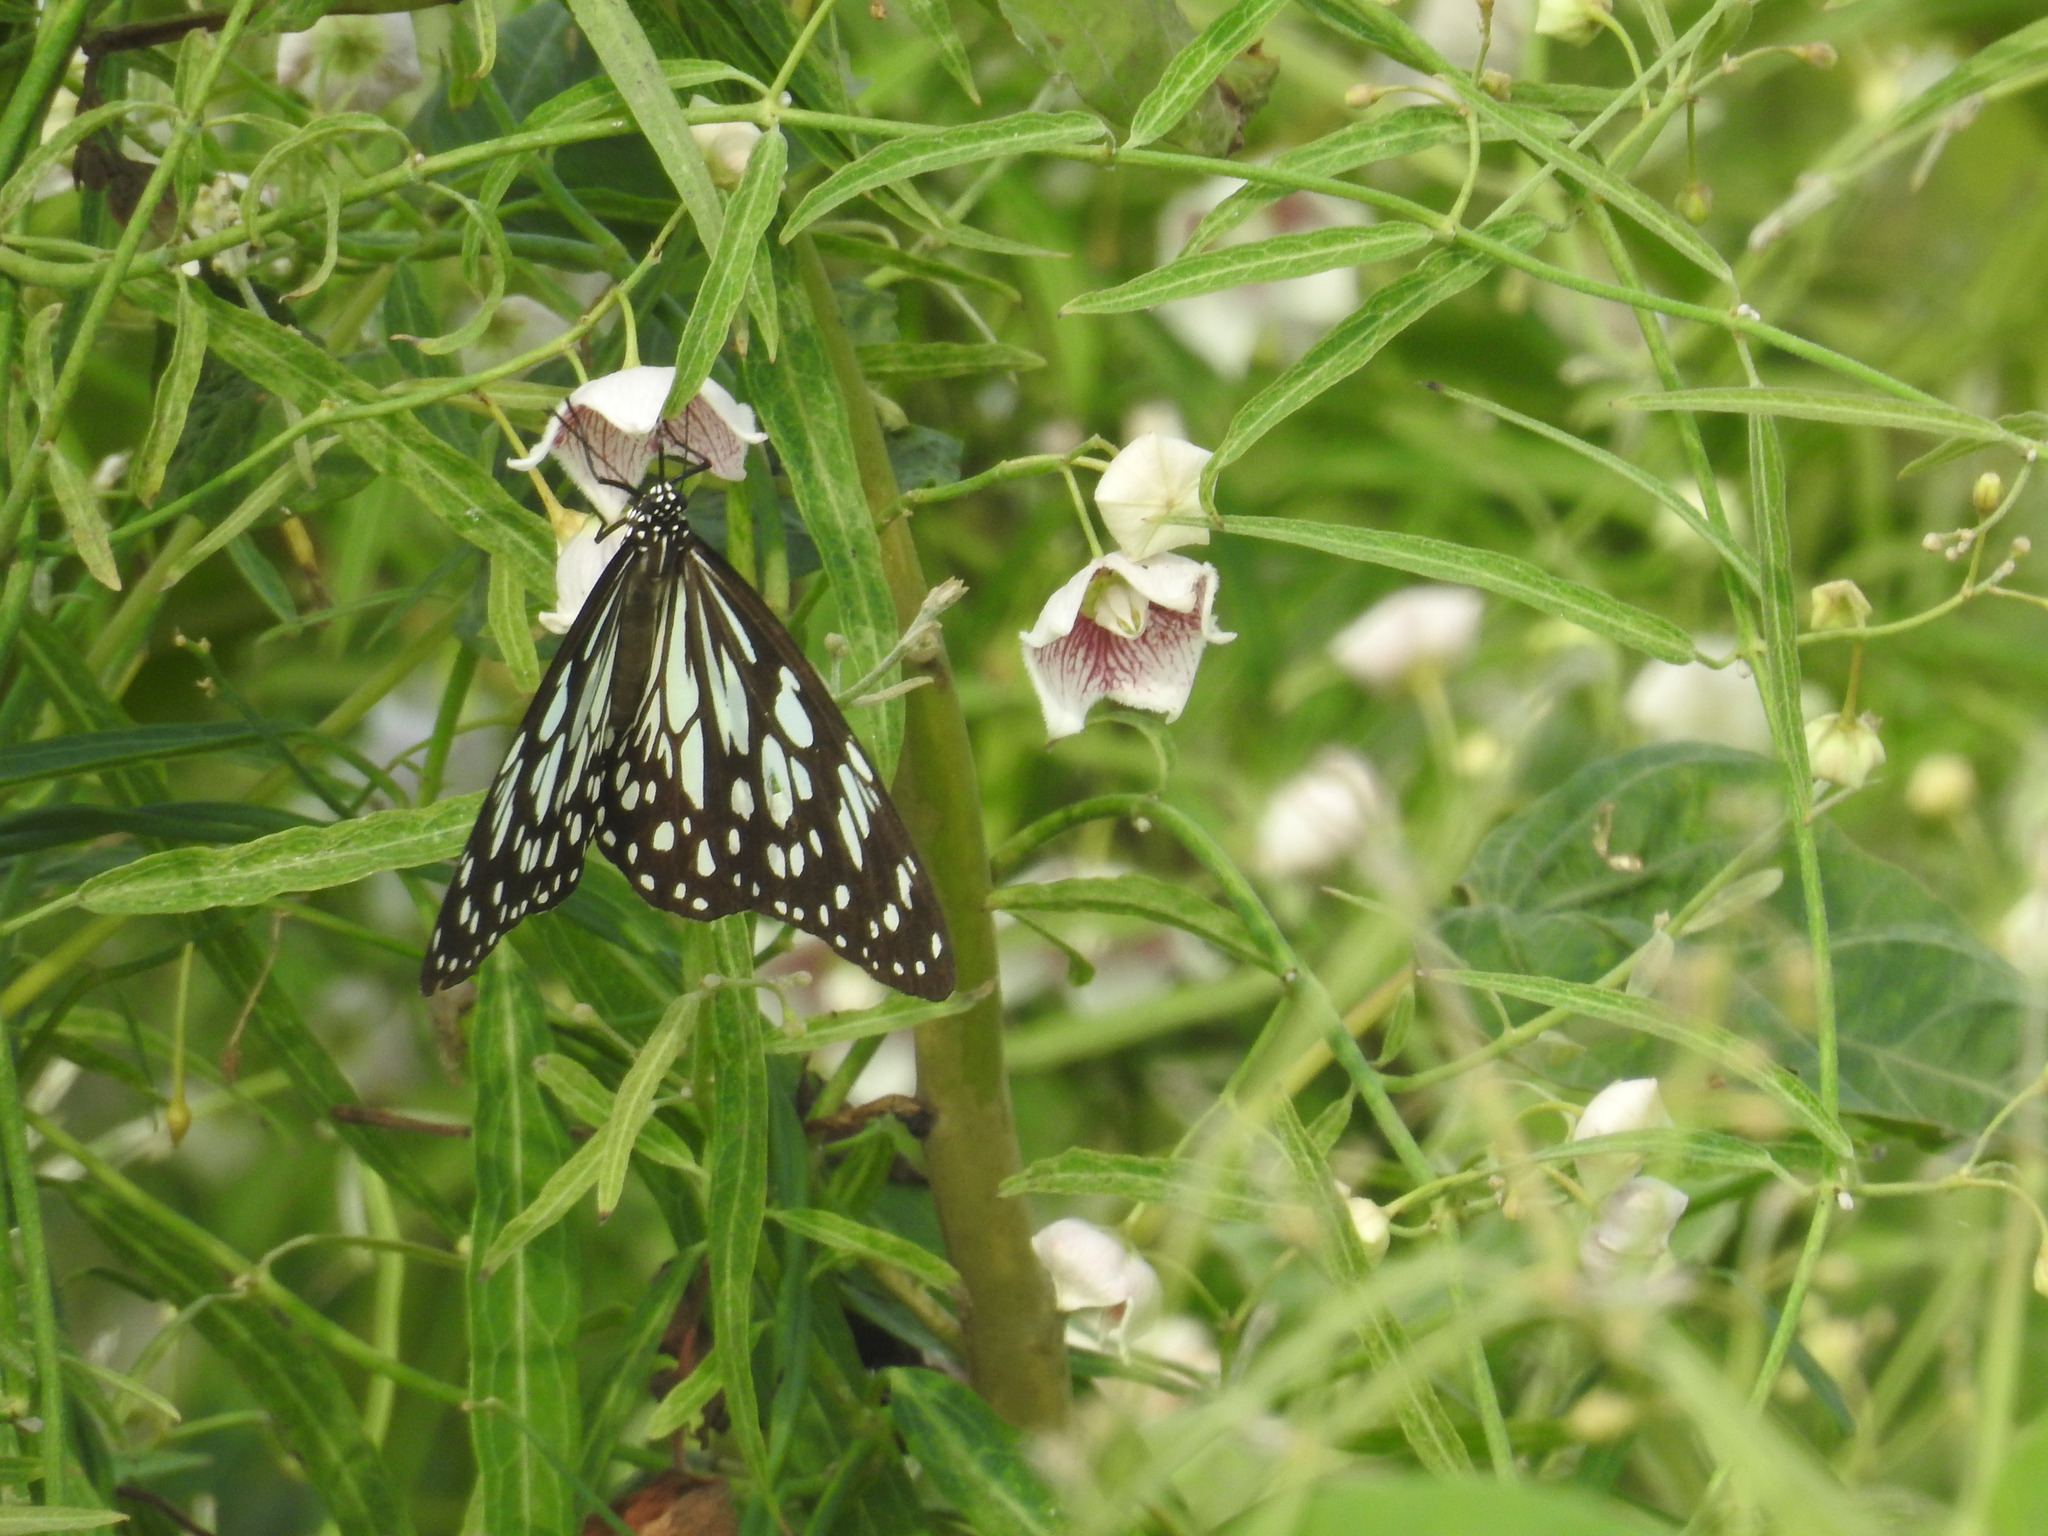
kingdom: Animalia
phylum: Arthropoda
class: Insecta
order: Lepidoptera
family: Nymphalidae
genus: Tirumala
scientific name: Tirumala limniace
